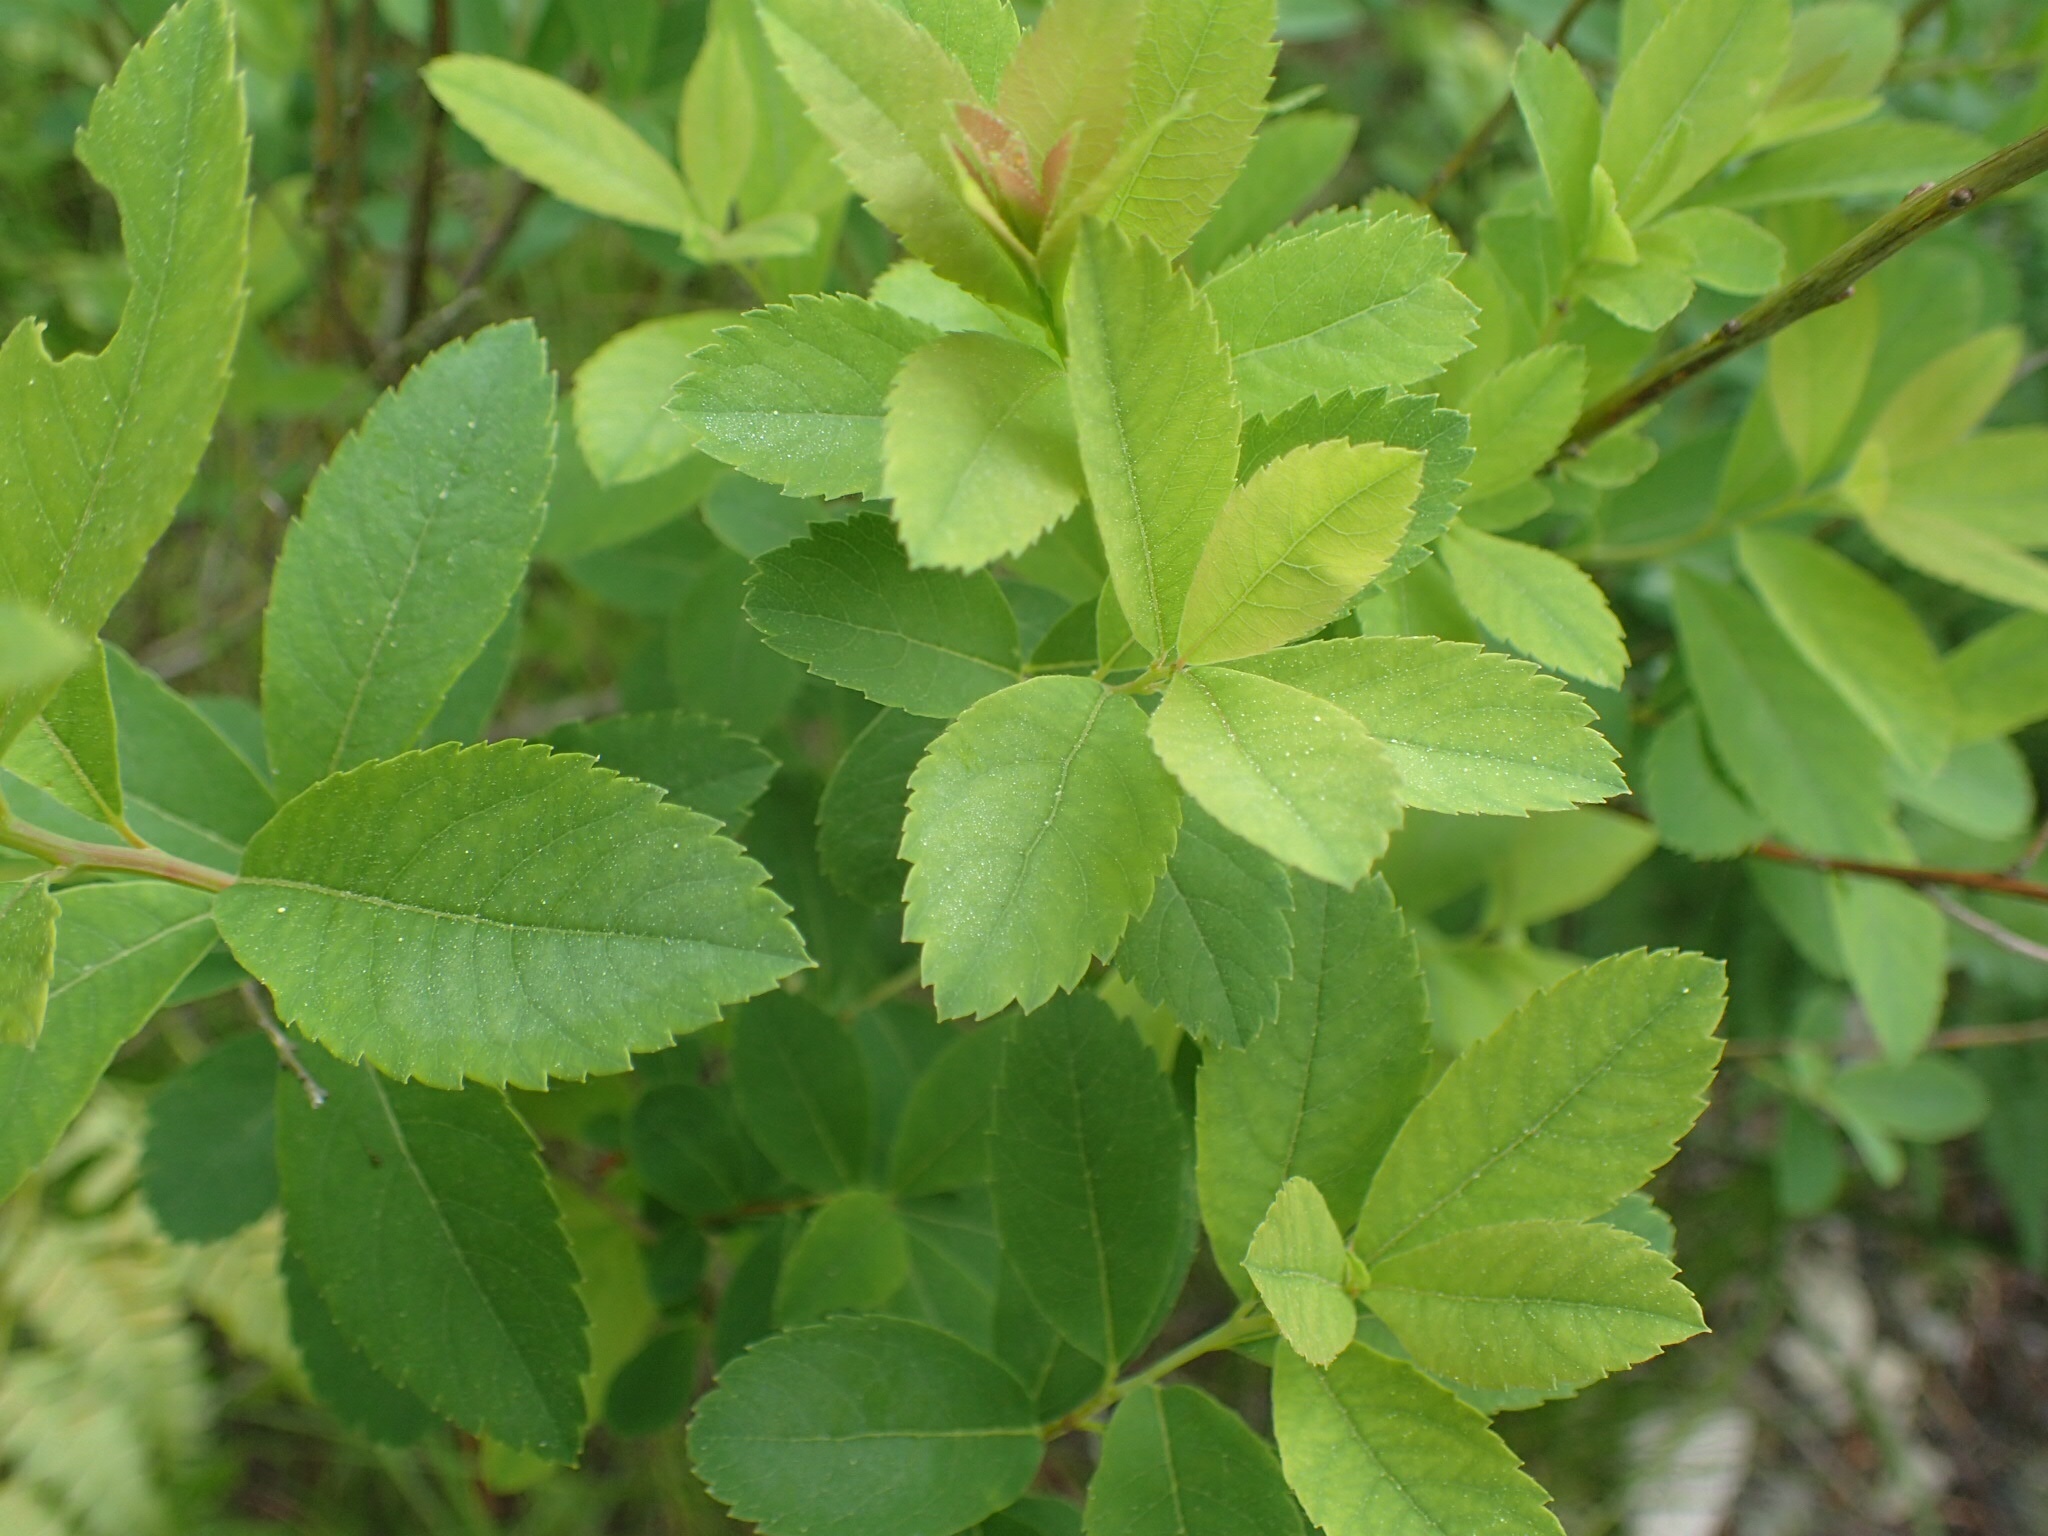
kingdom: Plantae
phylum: Tracheophyta
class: Magnoliopsida
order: Rosales
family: Rosaceae
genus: Spiraea
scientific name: Spiraea alba
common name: Pale bridewort
